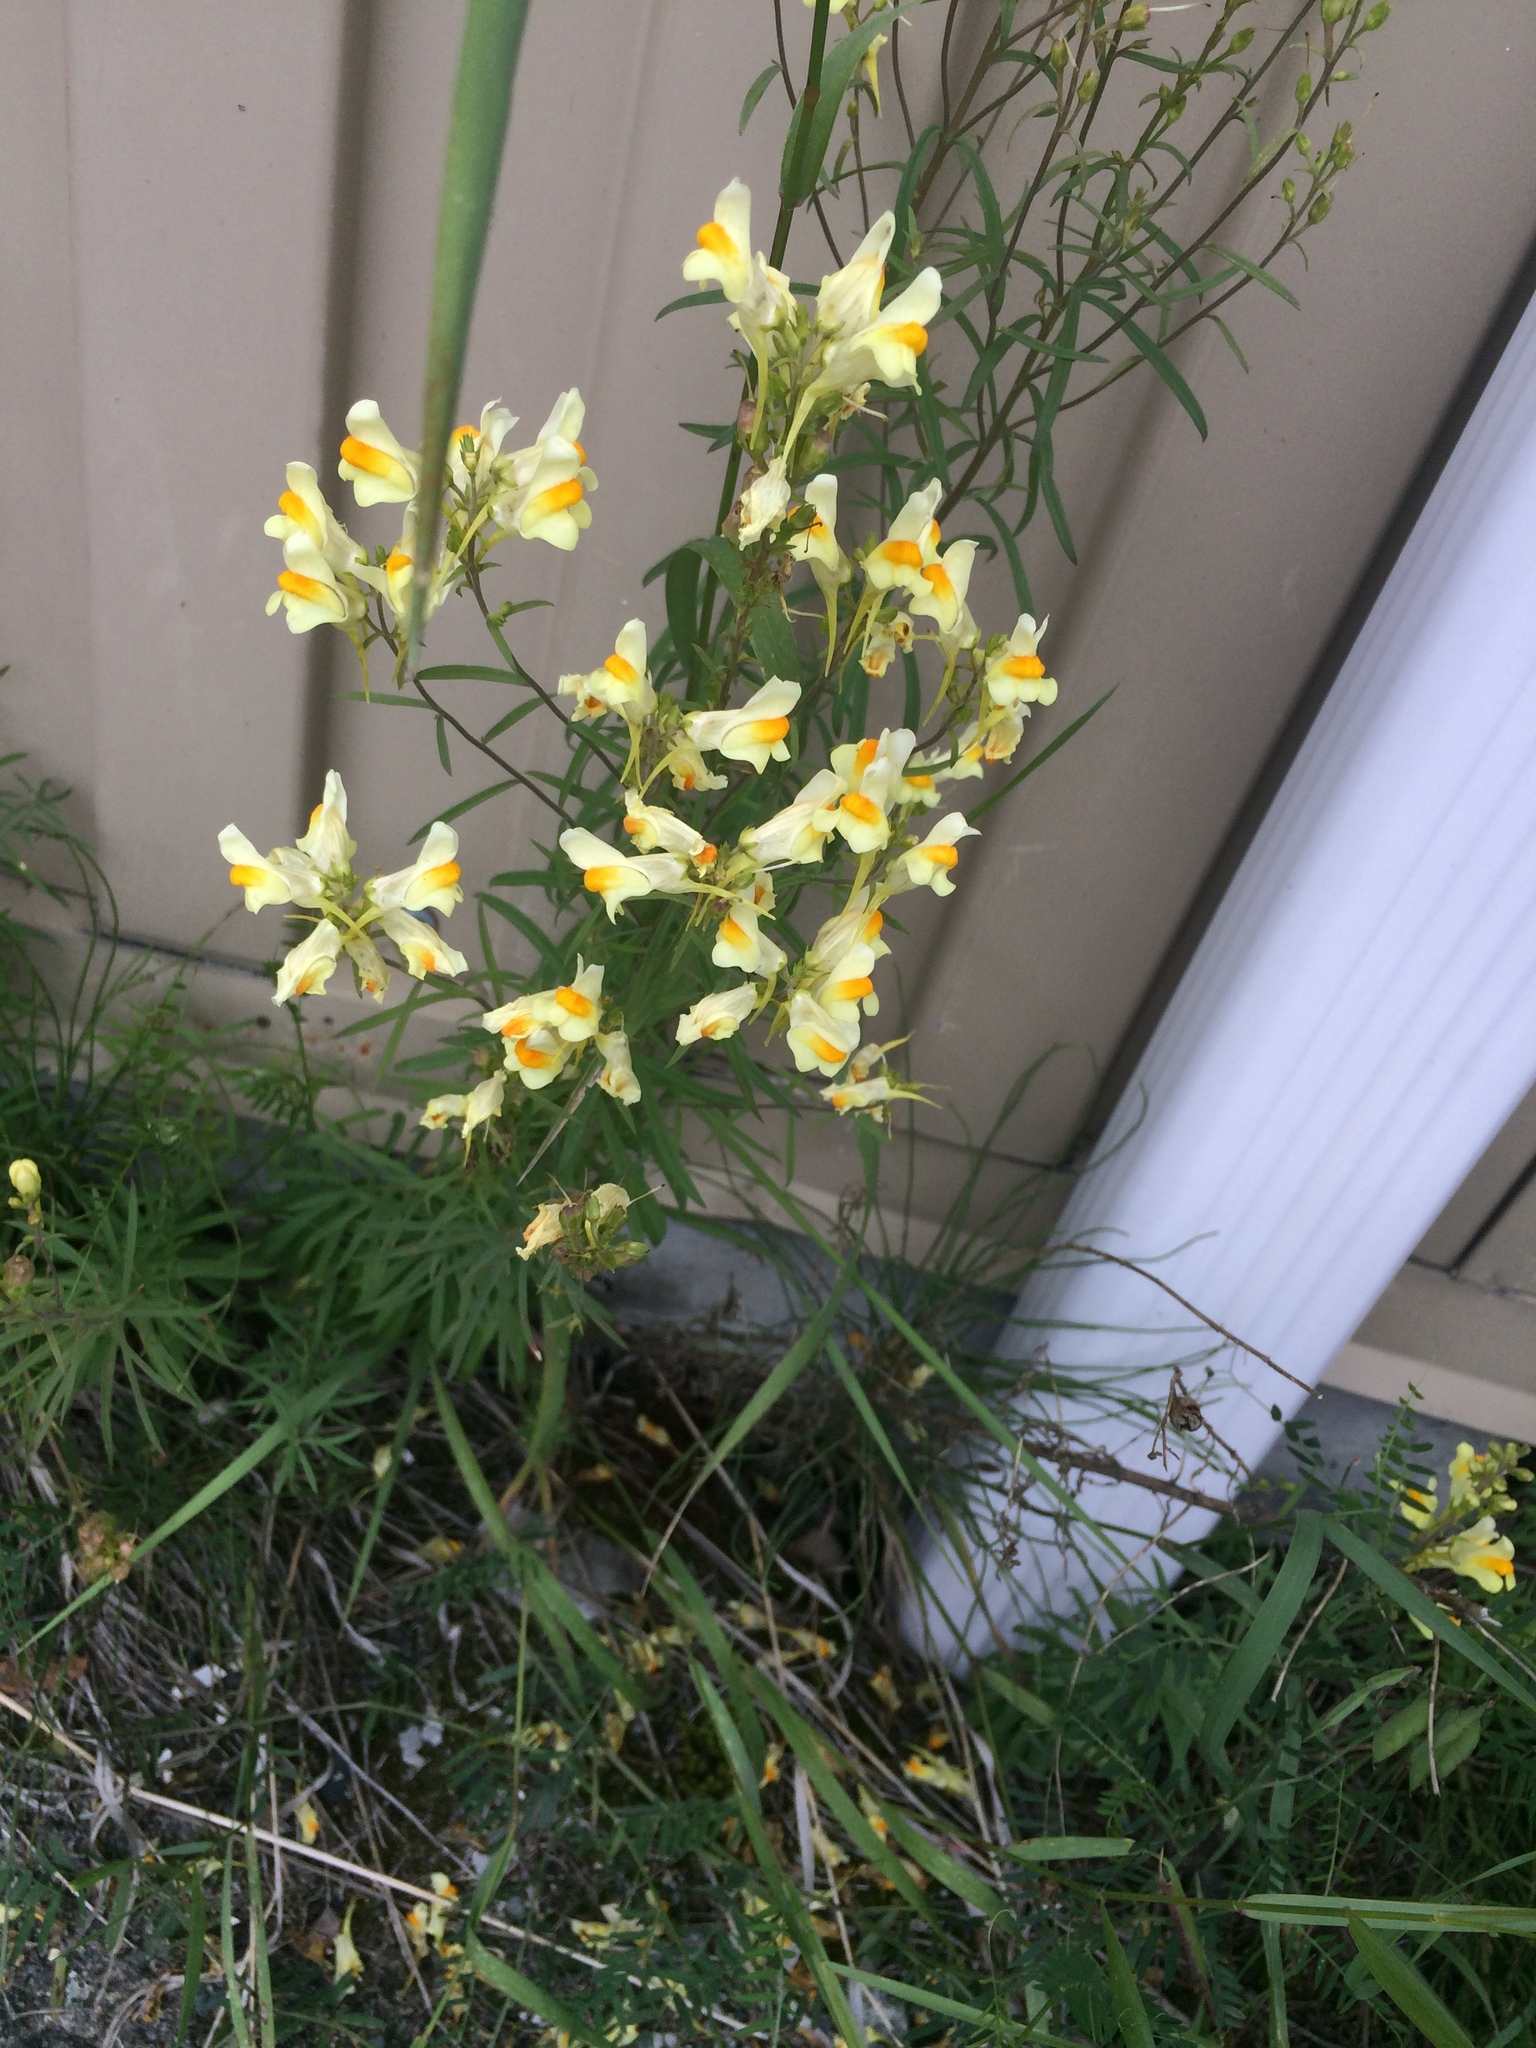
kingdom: Plantae
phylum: Tracheophyta
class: Magnoliopsida
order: Lamiales
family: Plantaginaceae
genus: Linaria
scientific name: Linaria vulgaris
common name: Butter and eggs
